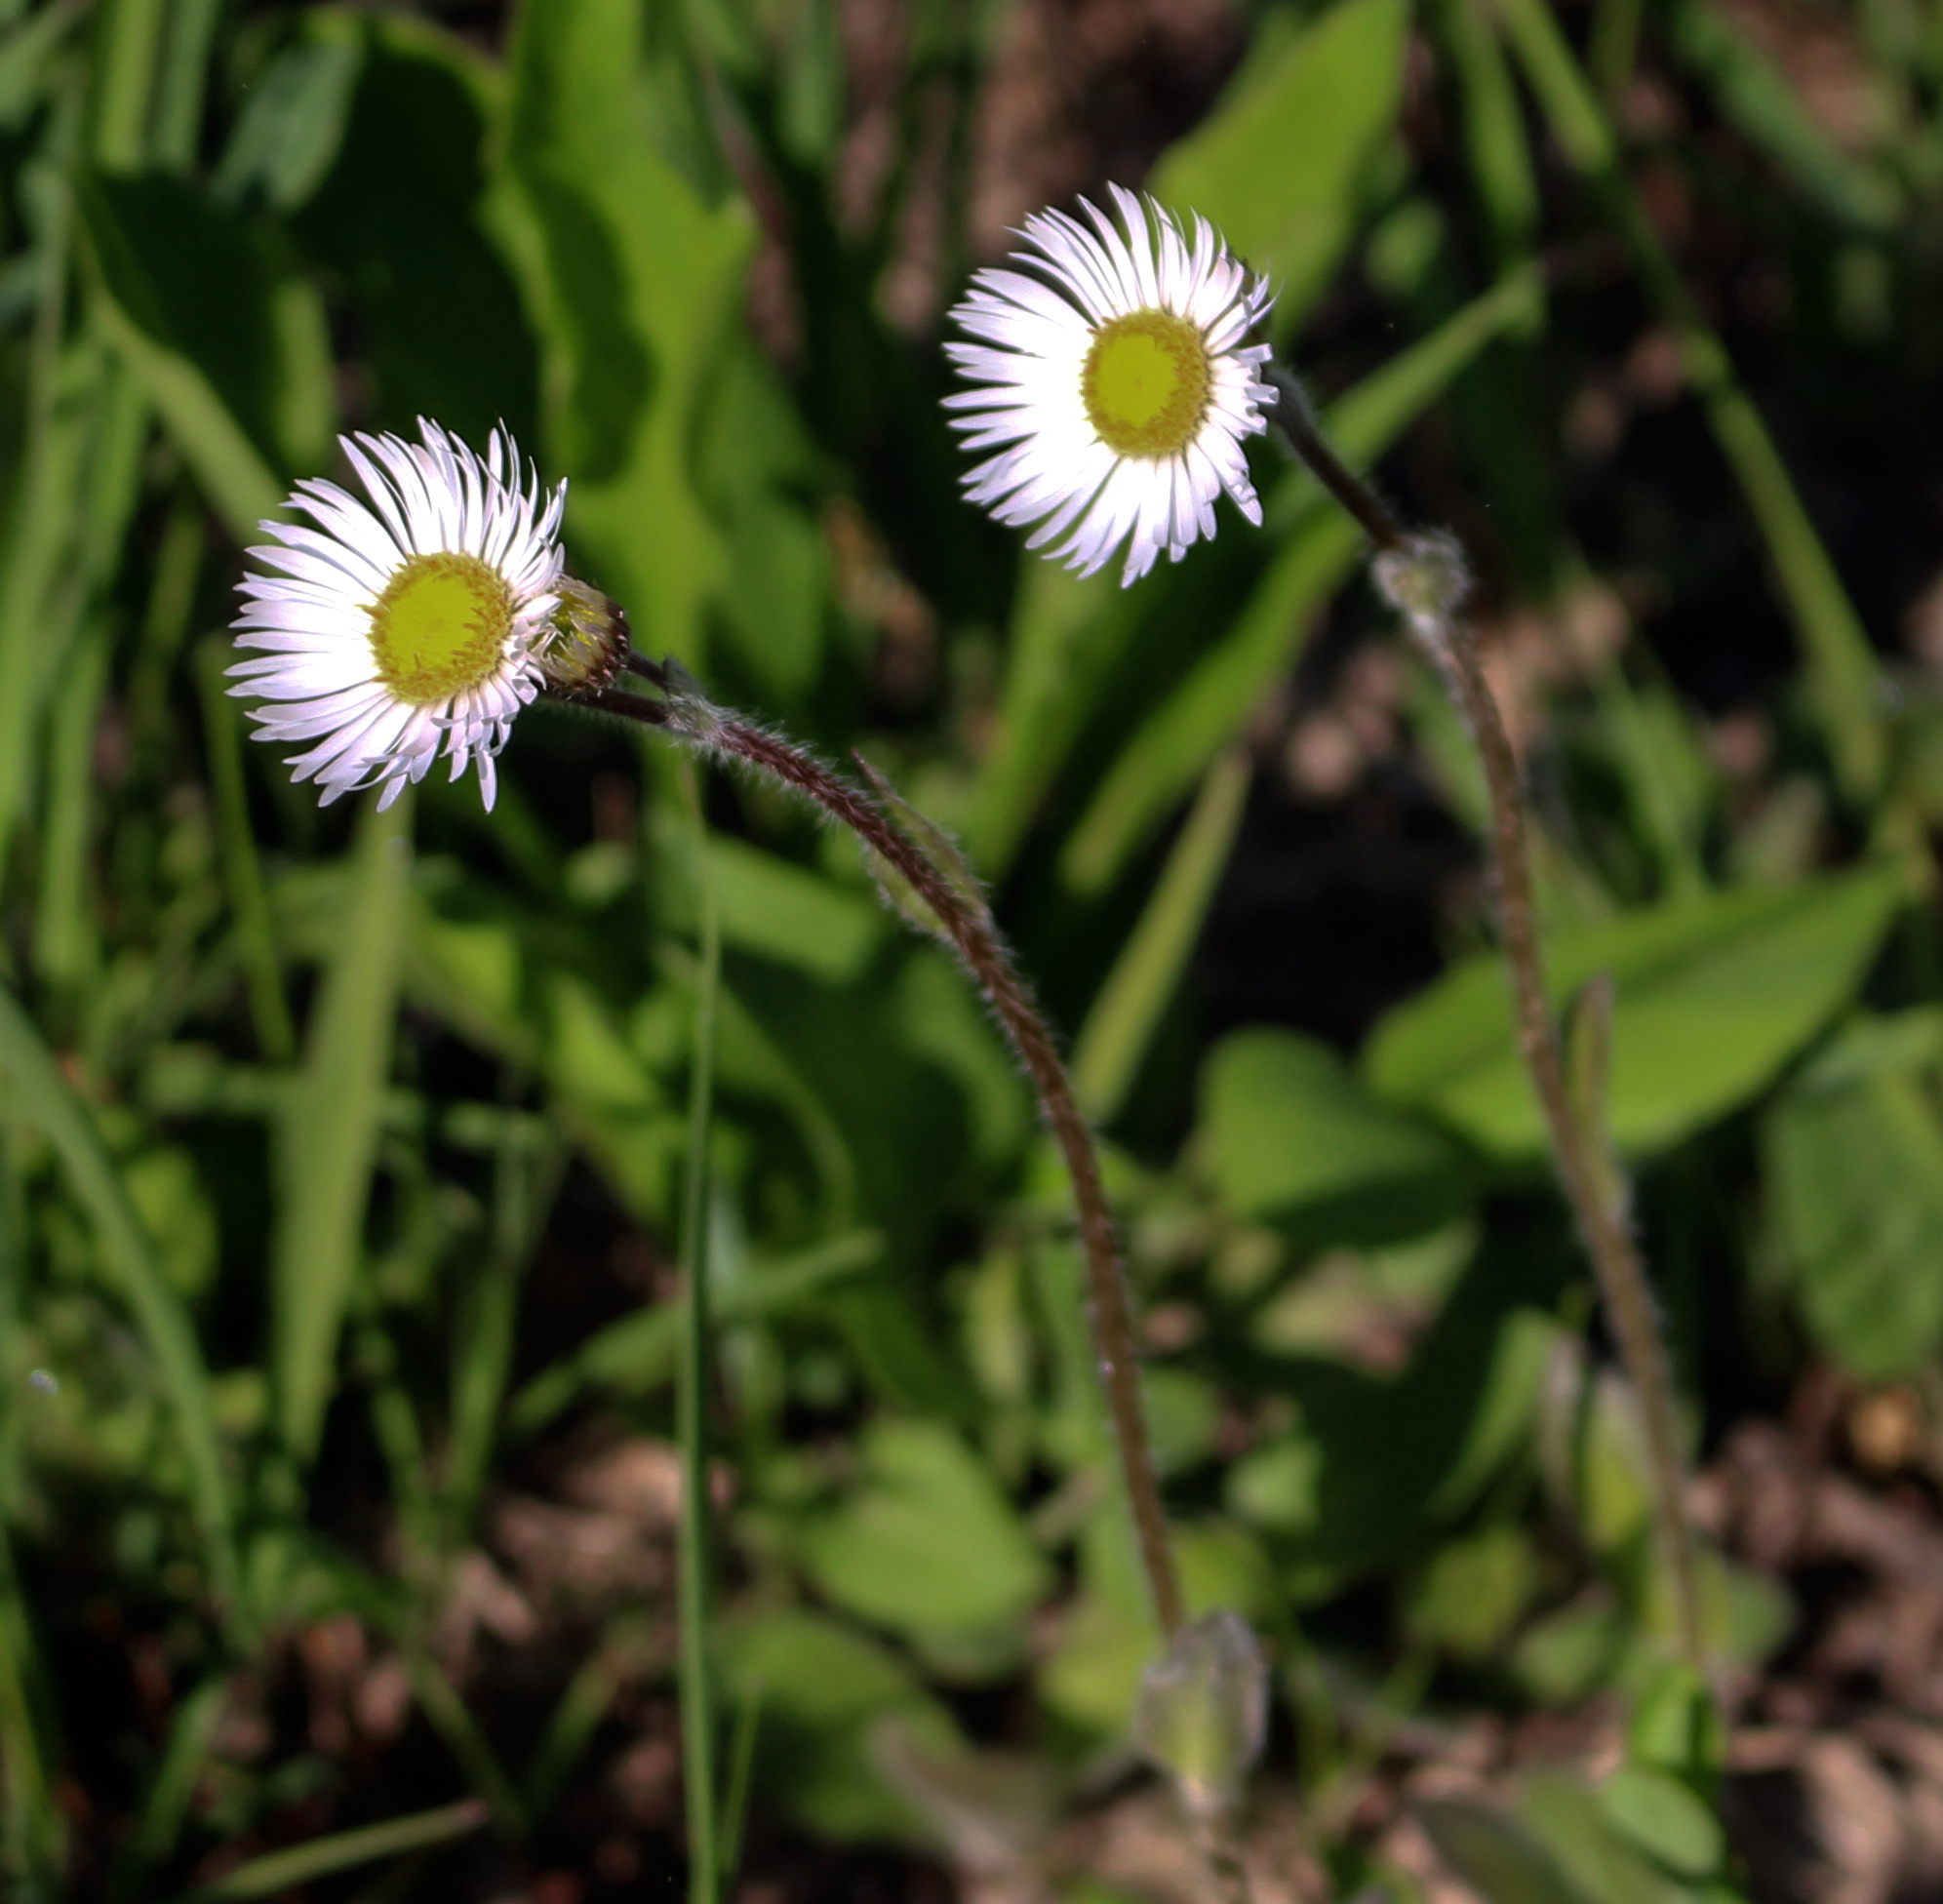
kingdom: Plantae
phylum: Tracheophyta
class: Magnoliopsida
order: Asterales
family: Asteraceae
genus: Erigeron
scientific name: Erigeron pulchellus
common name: Hairy fleabane
